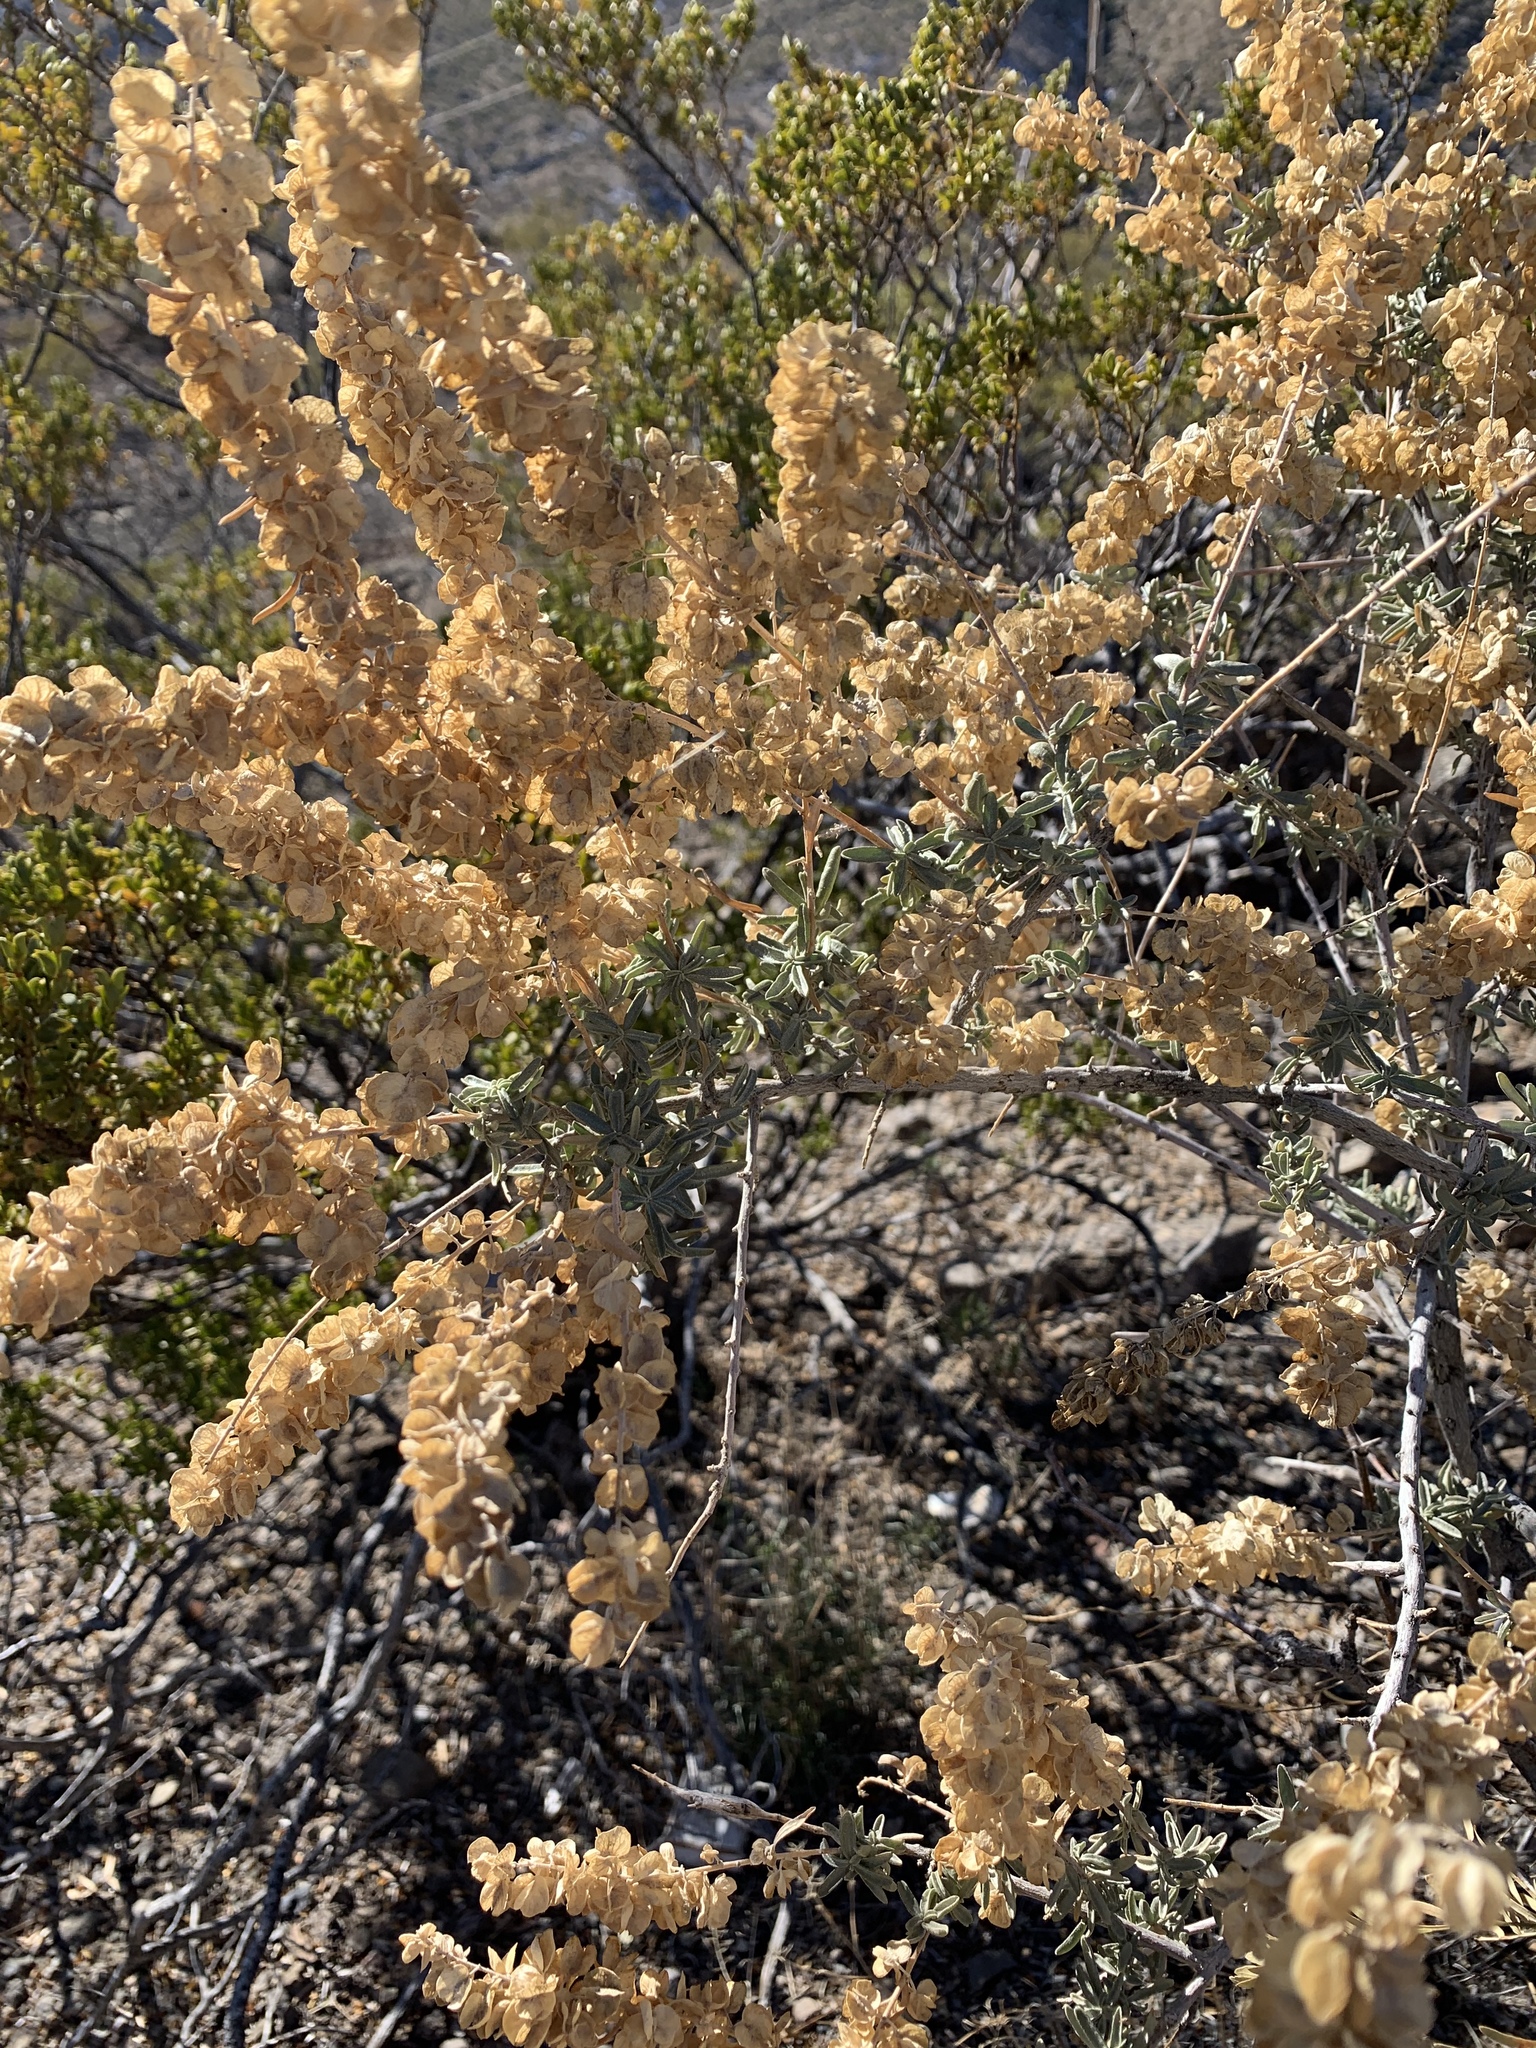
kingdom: Plantae
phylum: Tracheophyta
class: Magnoliopsida
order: Caryophyllales
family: Amaranthaceae
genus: Atriplex
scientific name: Atriplex canescens
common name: Four-wing saltbush
